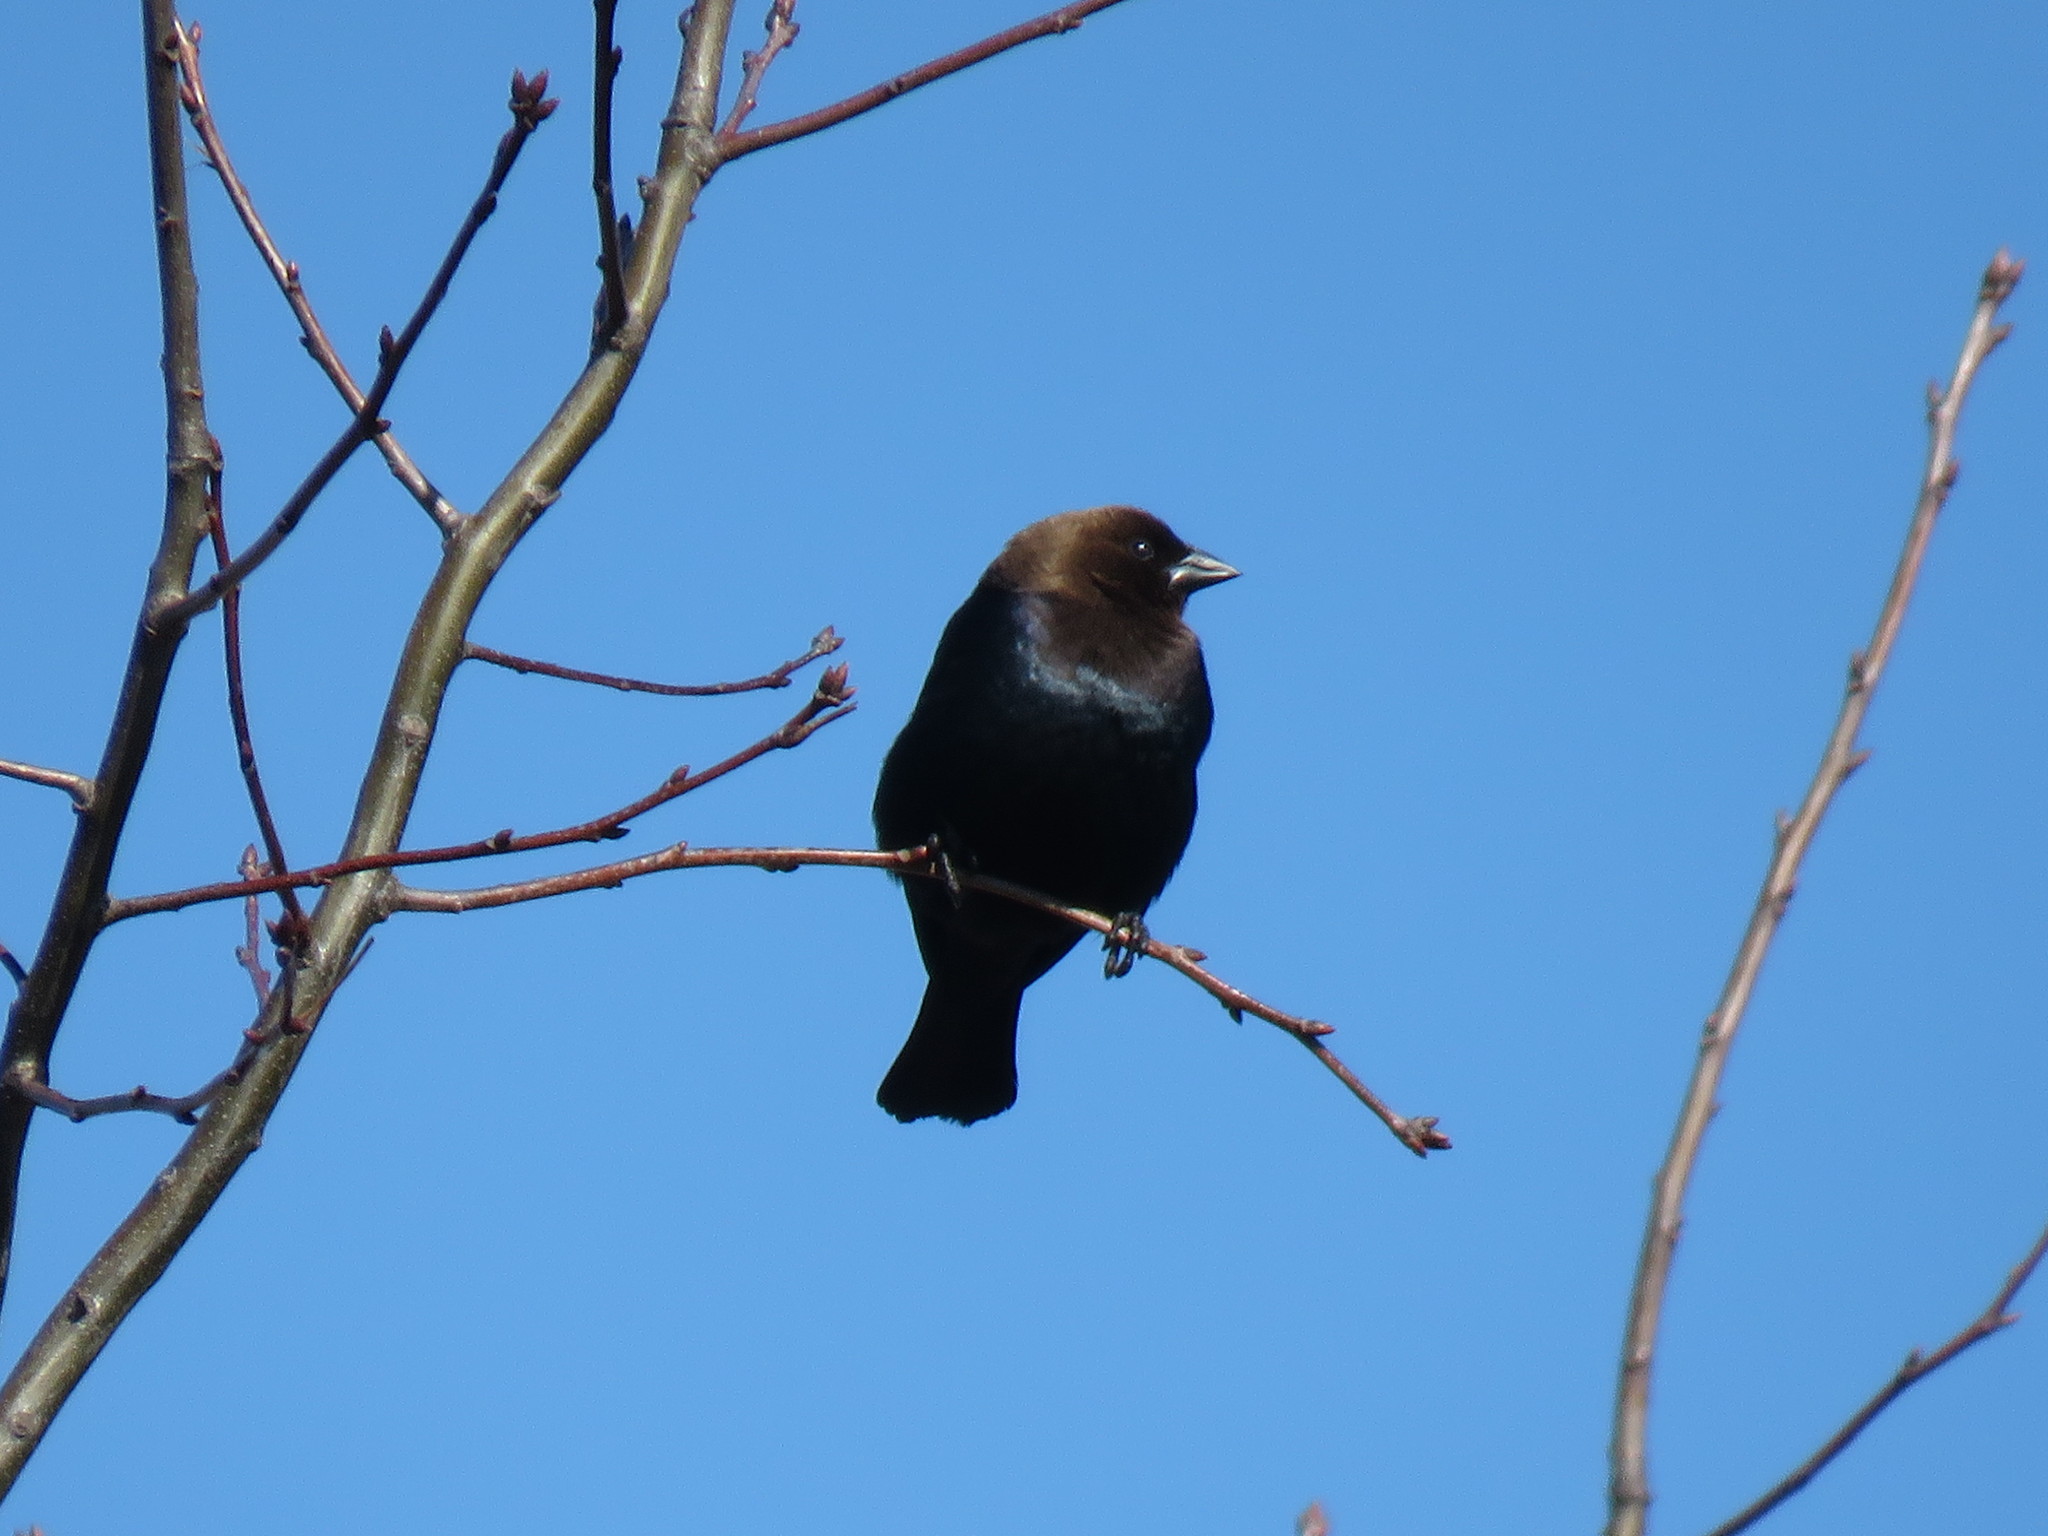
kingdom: Animalia
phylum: Chordata
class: Aves
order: Passeriformes
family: Icteridae
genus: Molothrus
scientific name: Molothrus ater
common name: Brown-headed cowbird
